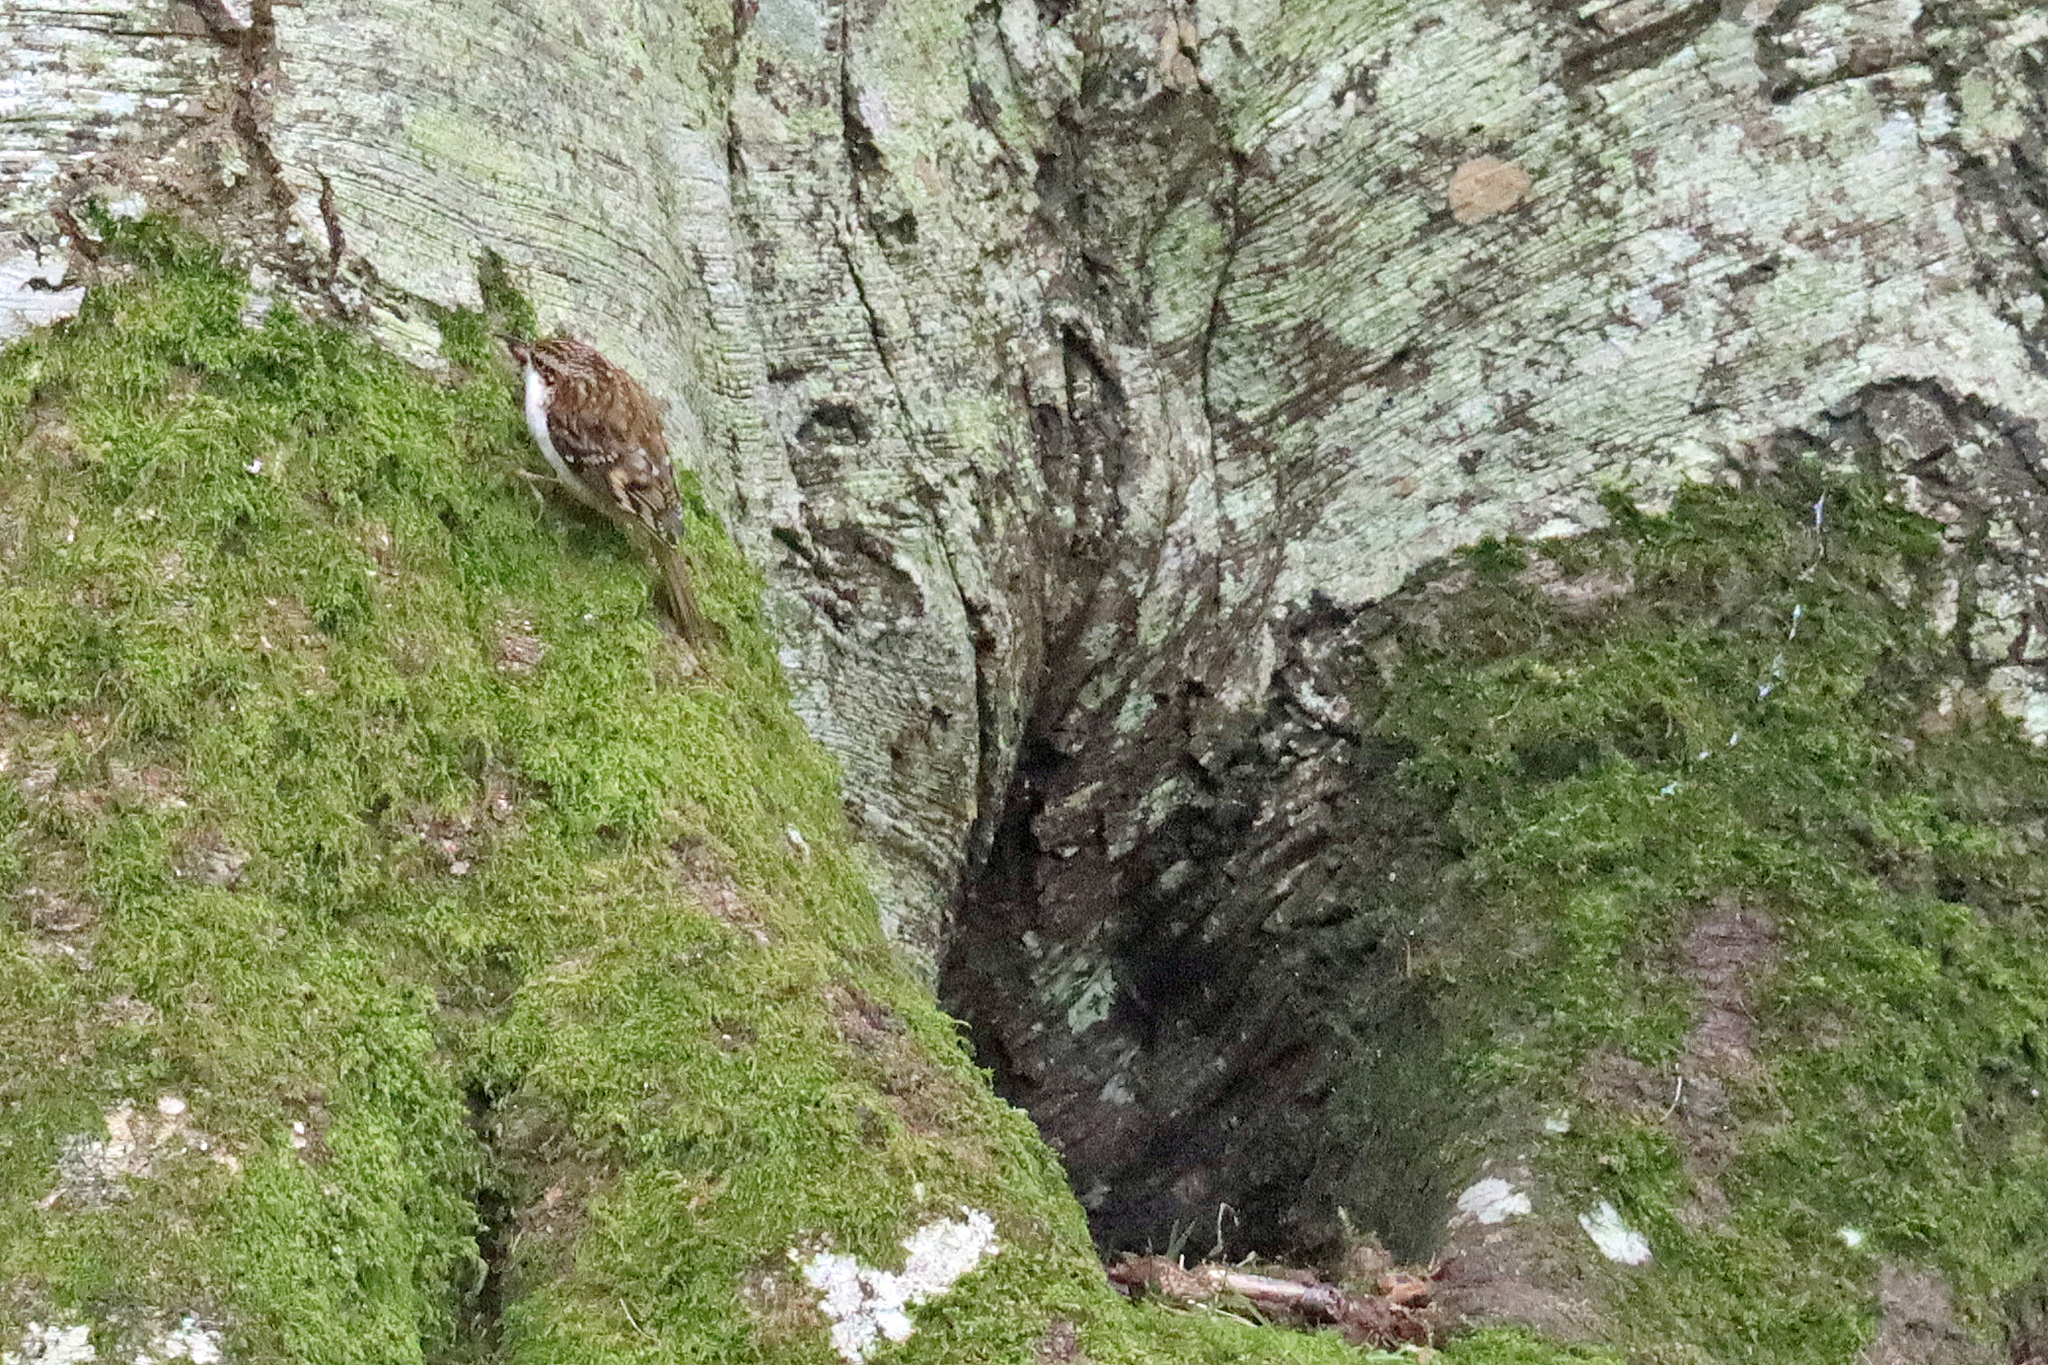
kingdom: Animalia
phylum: Chordata
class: Aves
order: Passeriformes
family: Certhiidae
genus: Certhia
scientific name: Certhia familiaris
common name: Eurasian treecreeper
